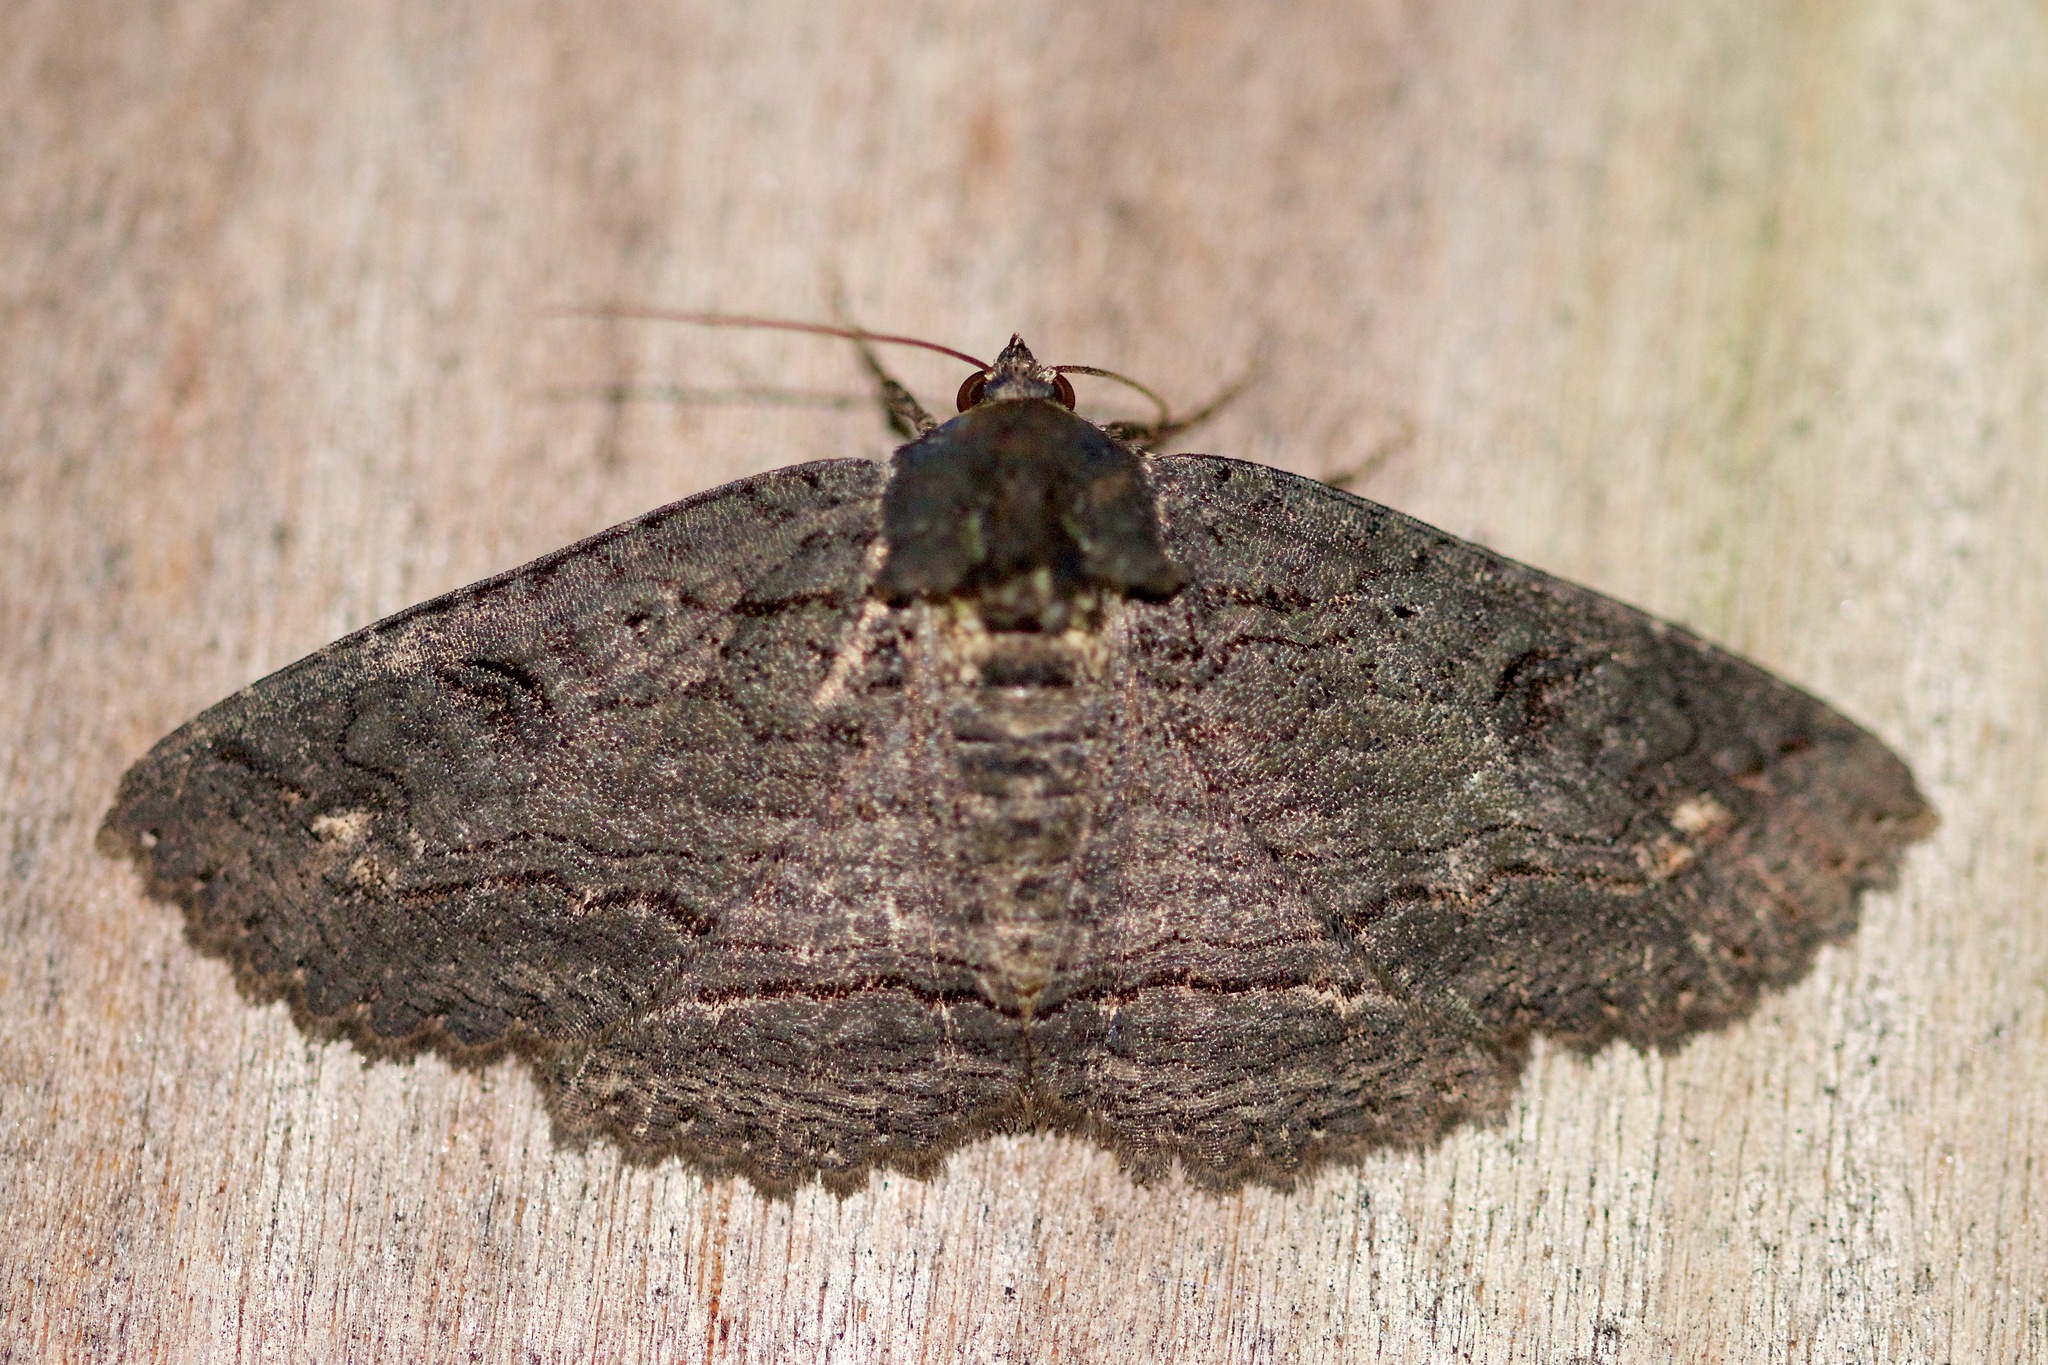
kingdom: Animalia
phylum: Arthropoda
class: Insecta
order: Lepidoptera
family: Erebidae
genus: Zale
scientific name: Zale undularis
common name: Black zale moth
